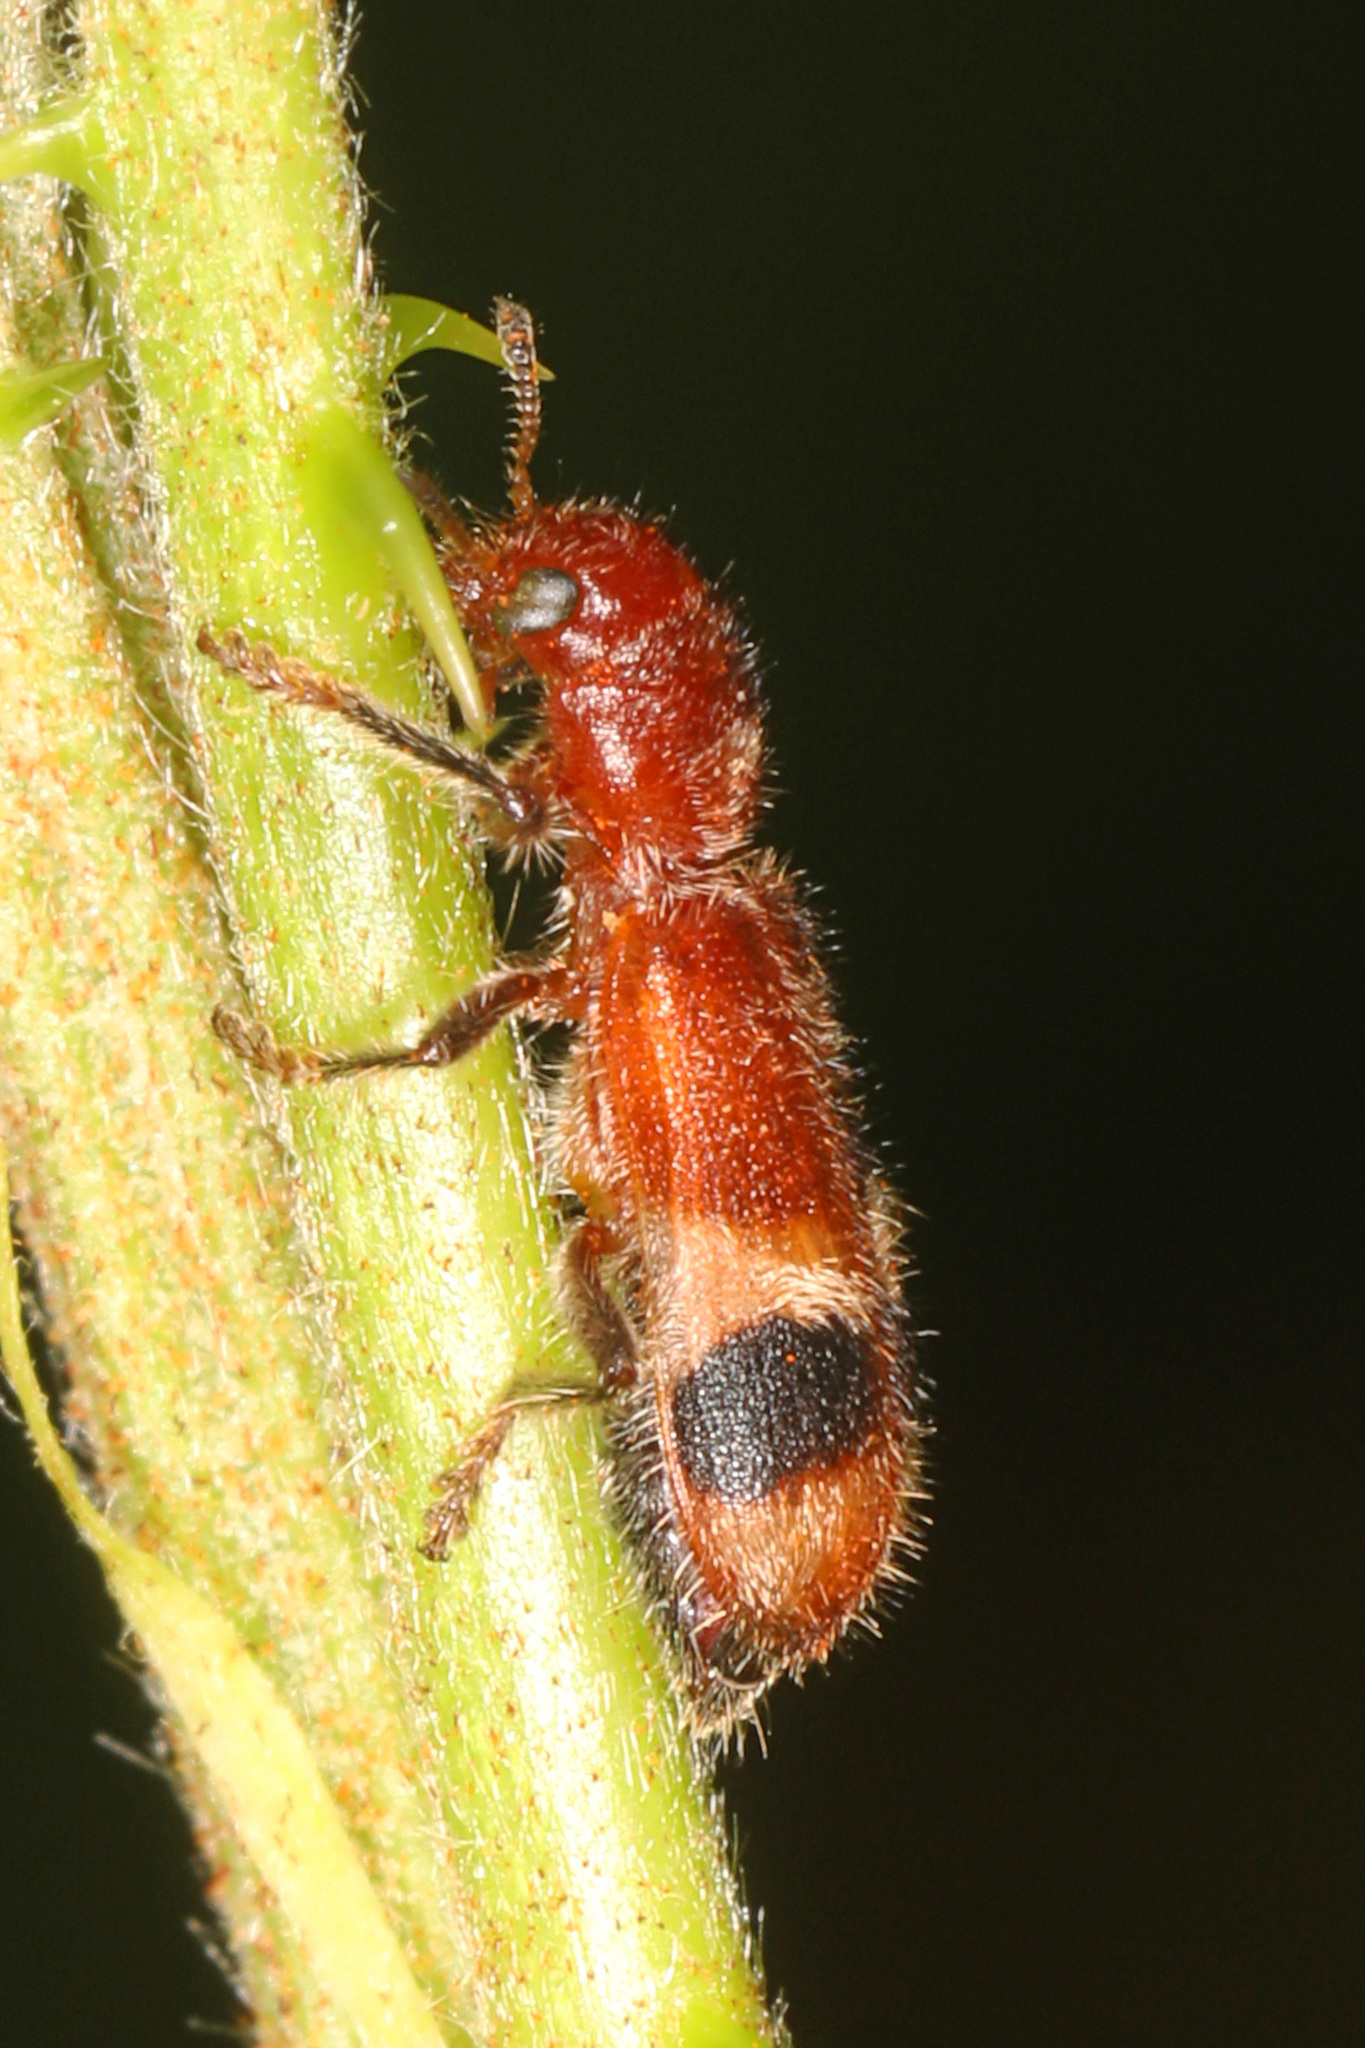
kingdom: Animalia
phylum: Arthropoda
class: Insecta
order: Coleoptera
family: Cleridae
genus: Enoclerus
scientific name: Enoclerus rosmarus
